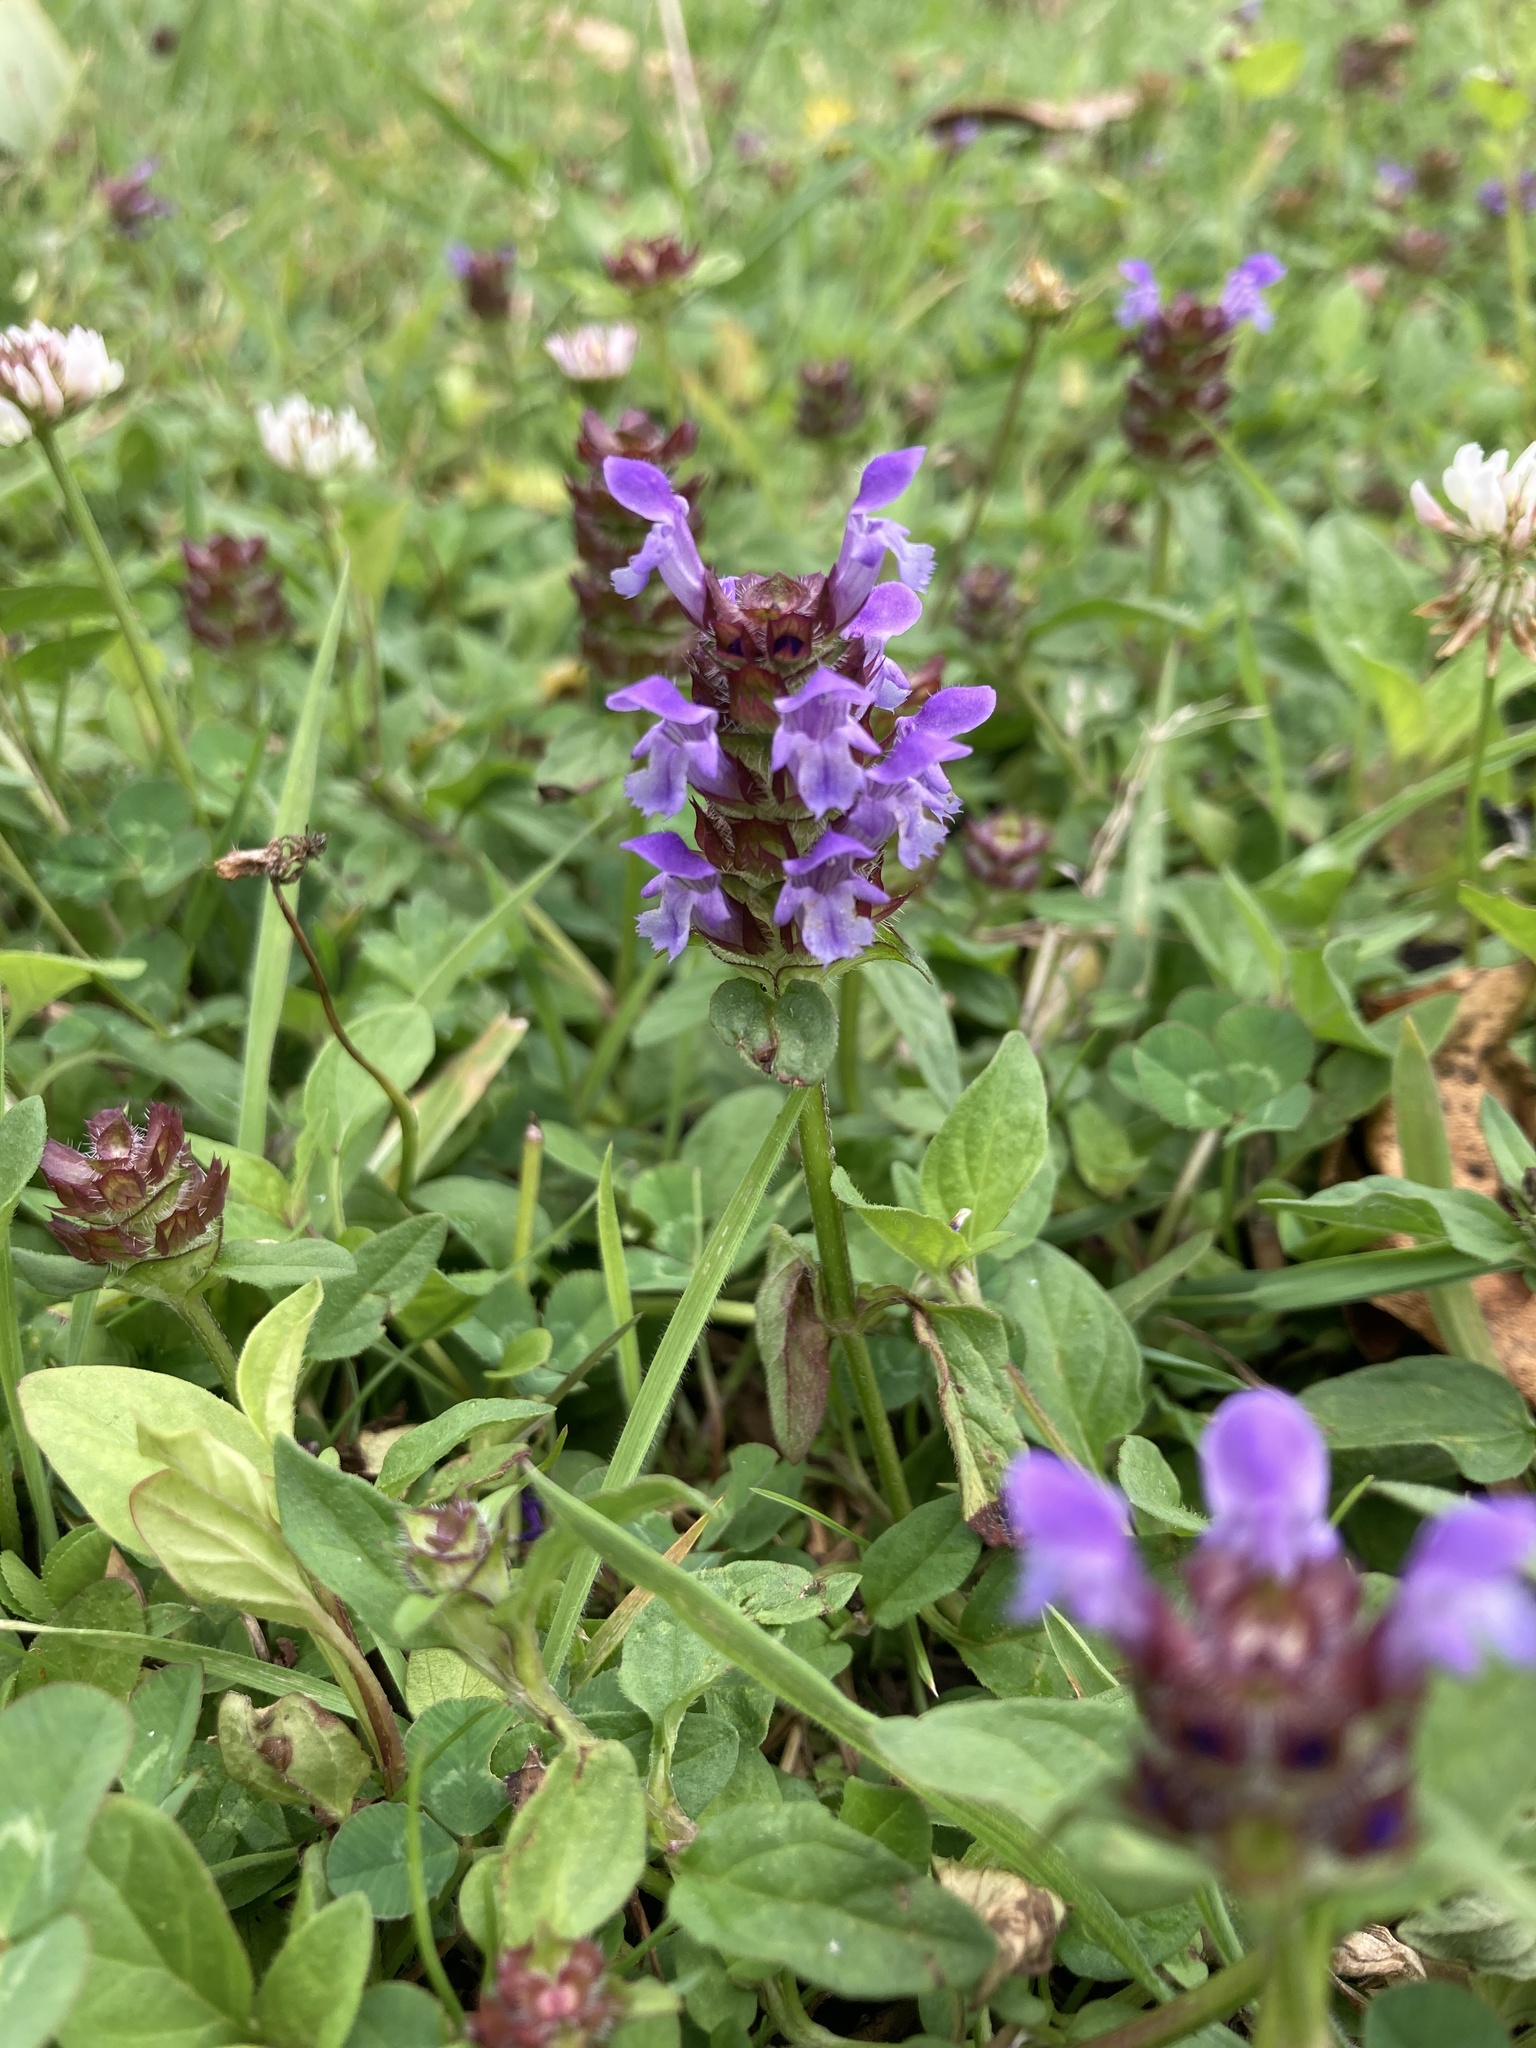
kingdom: Plantae
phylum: Tracheophyta
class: Magnoliopsida
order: Lamiales
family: Lamiaceae
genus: Prunella
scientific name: Prunella vulgaris
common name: Heal-all
